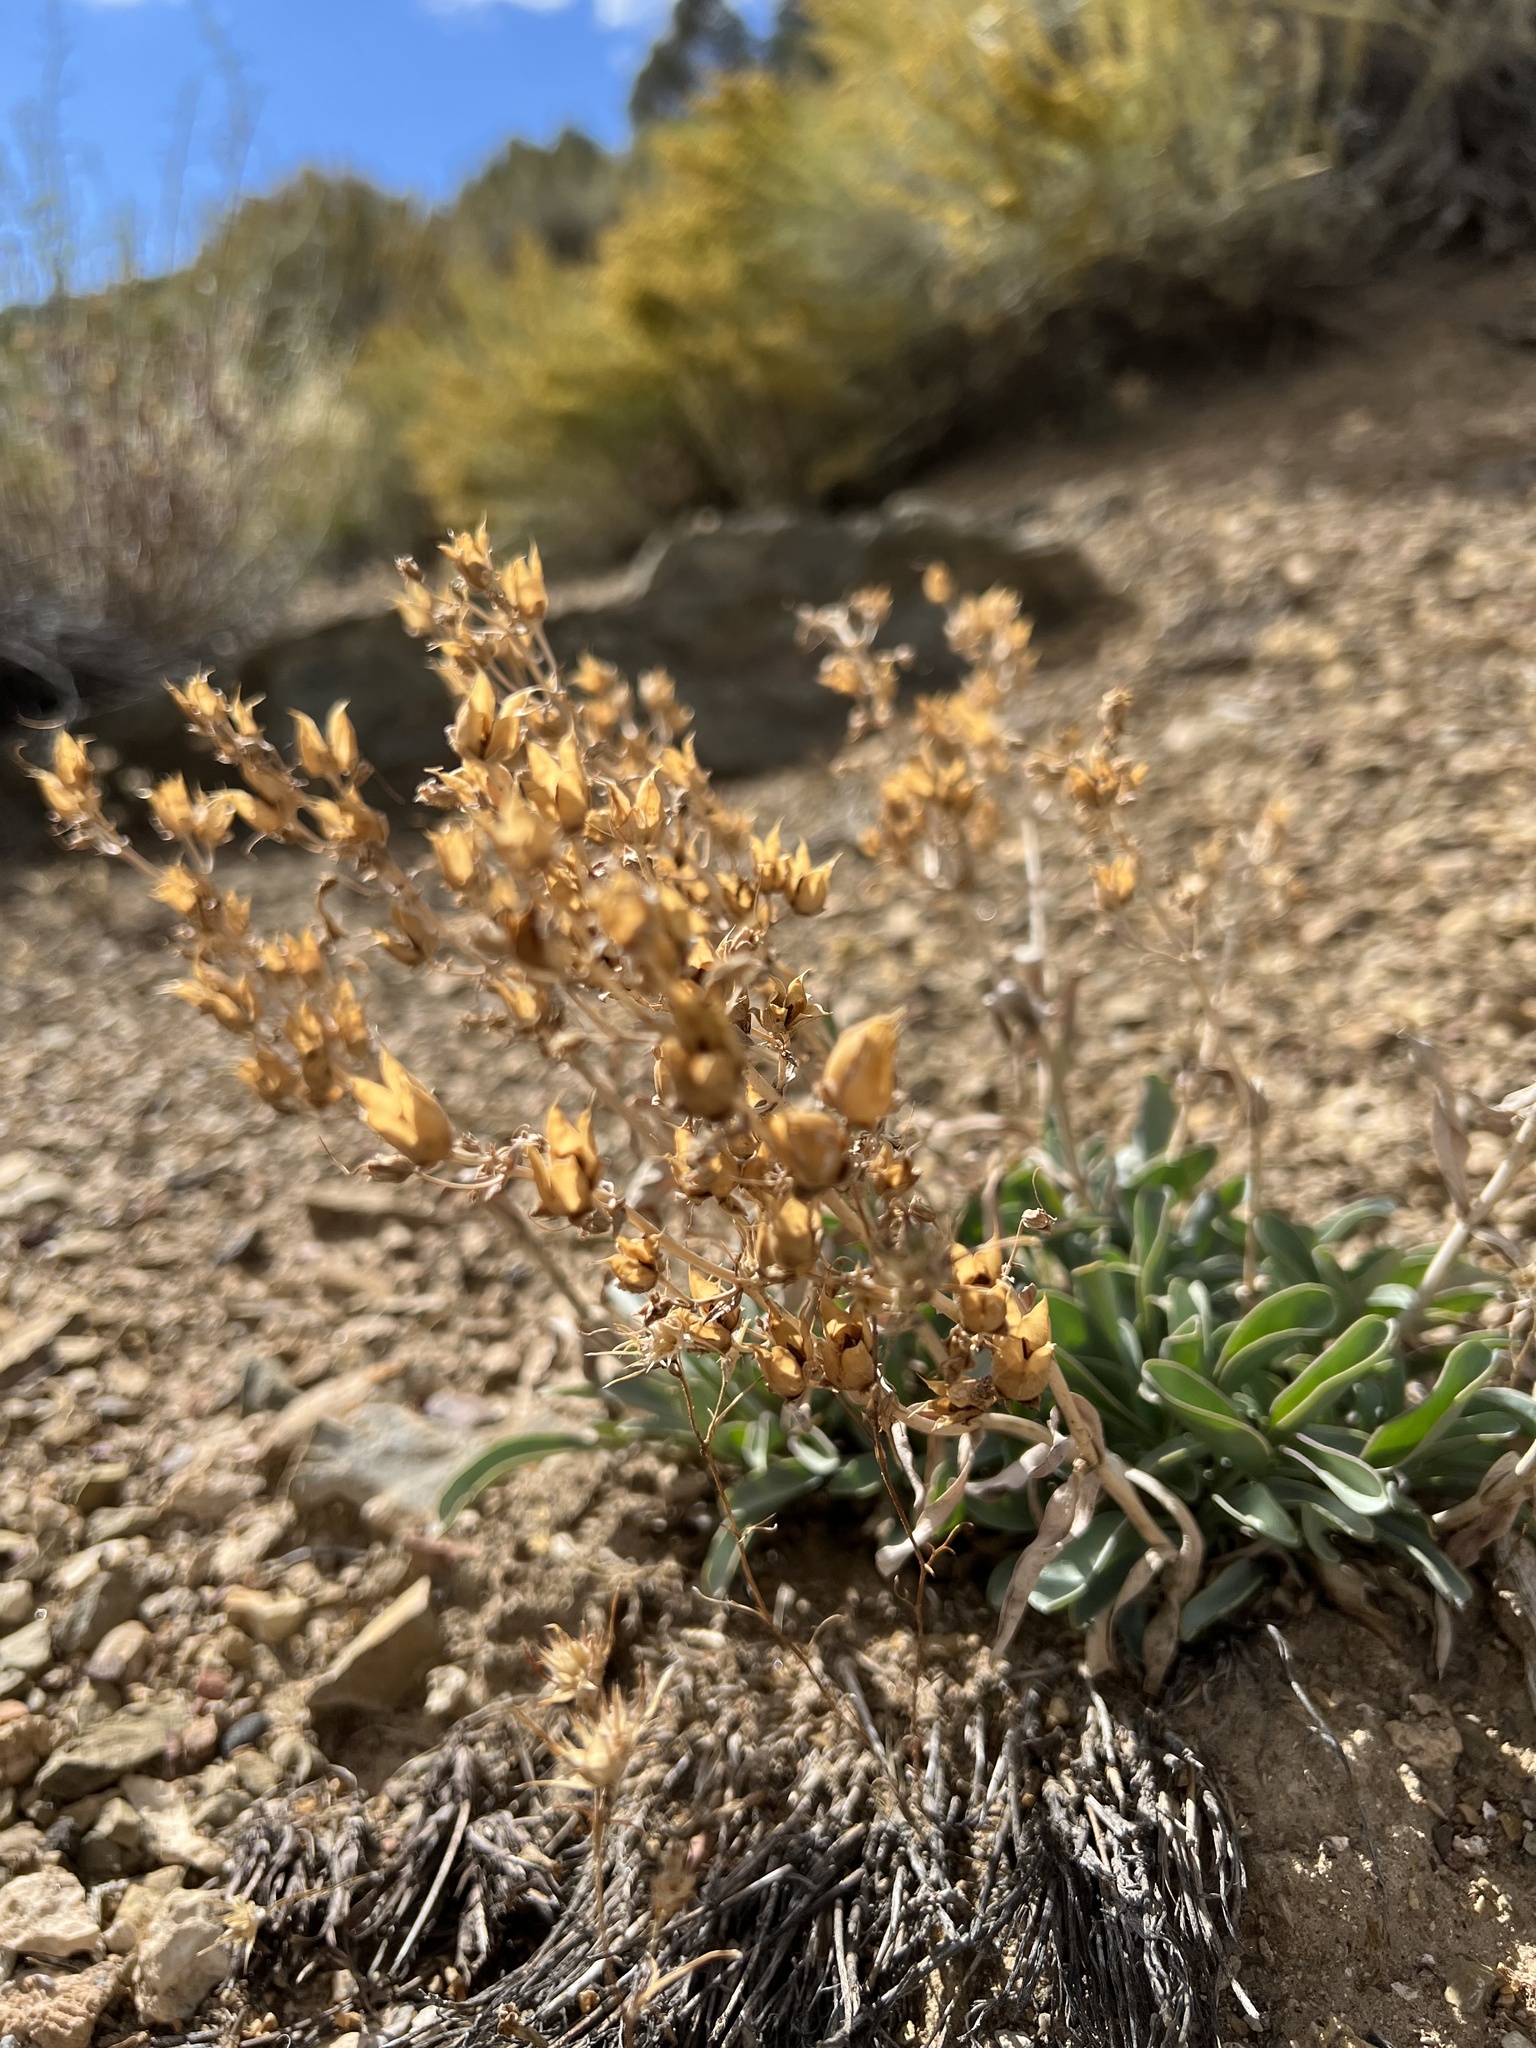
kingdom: Plantae
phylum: Tracheophyta
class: Magnoliopsida
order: Lamiales
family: Plantaginaceae
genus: Penstemon
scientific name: Penstemon patens
